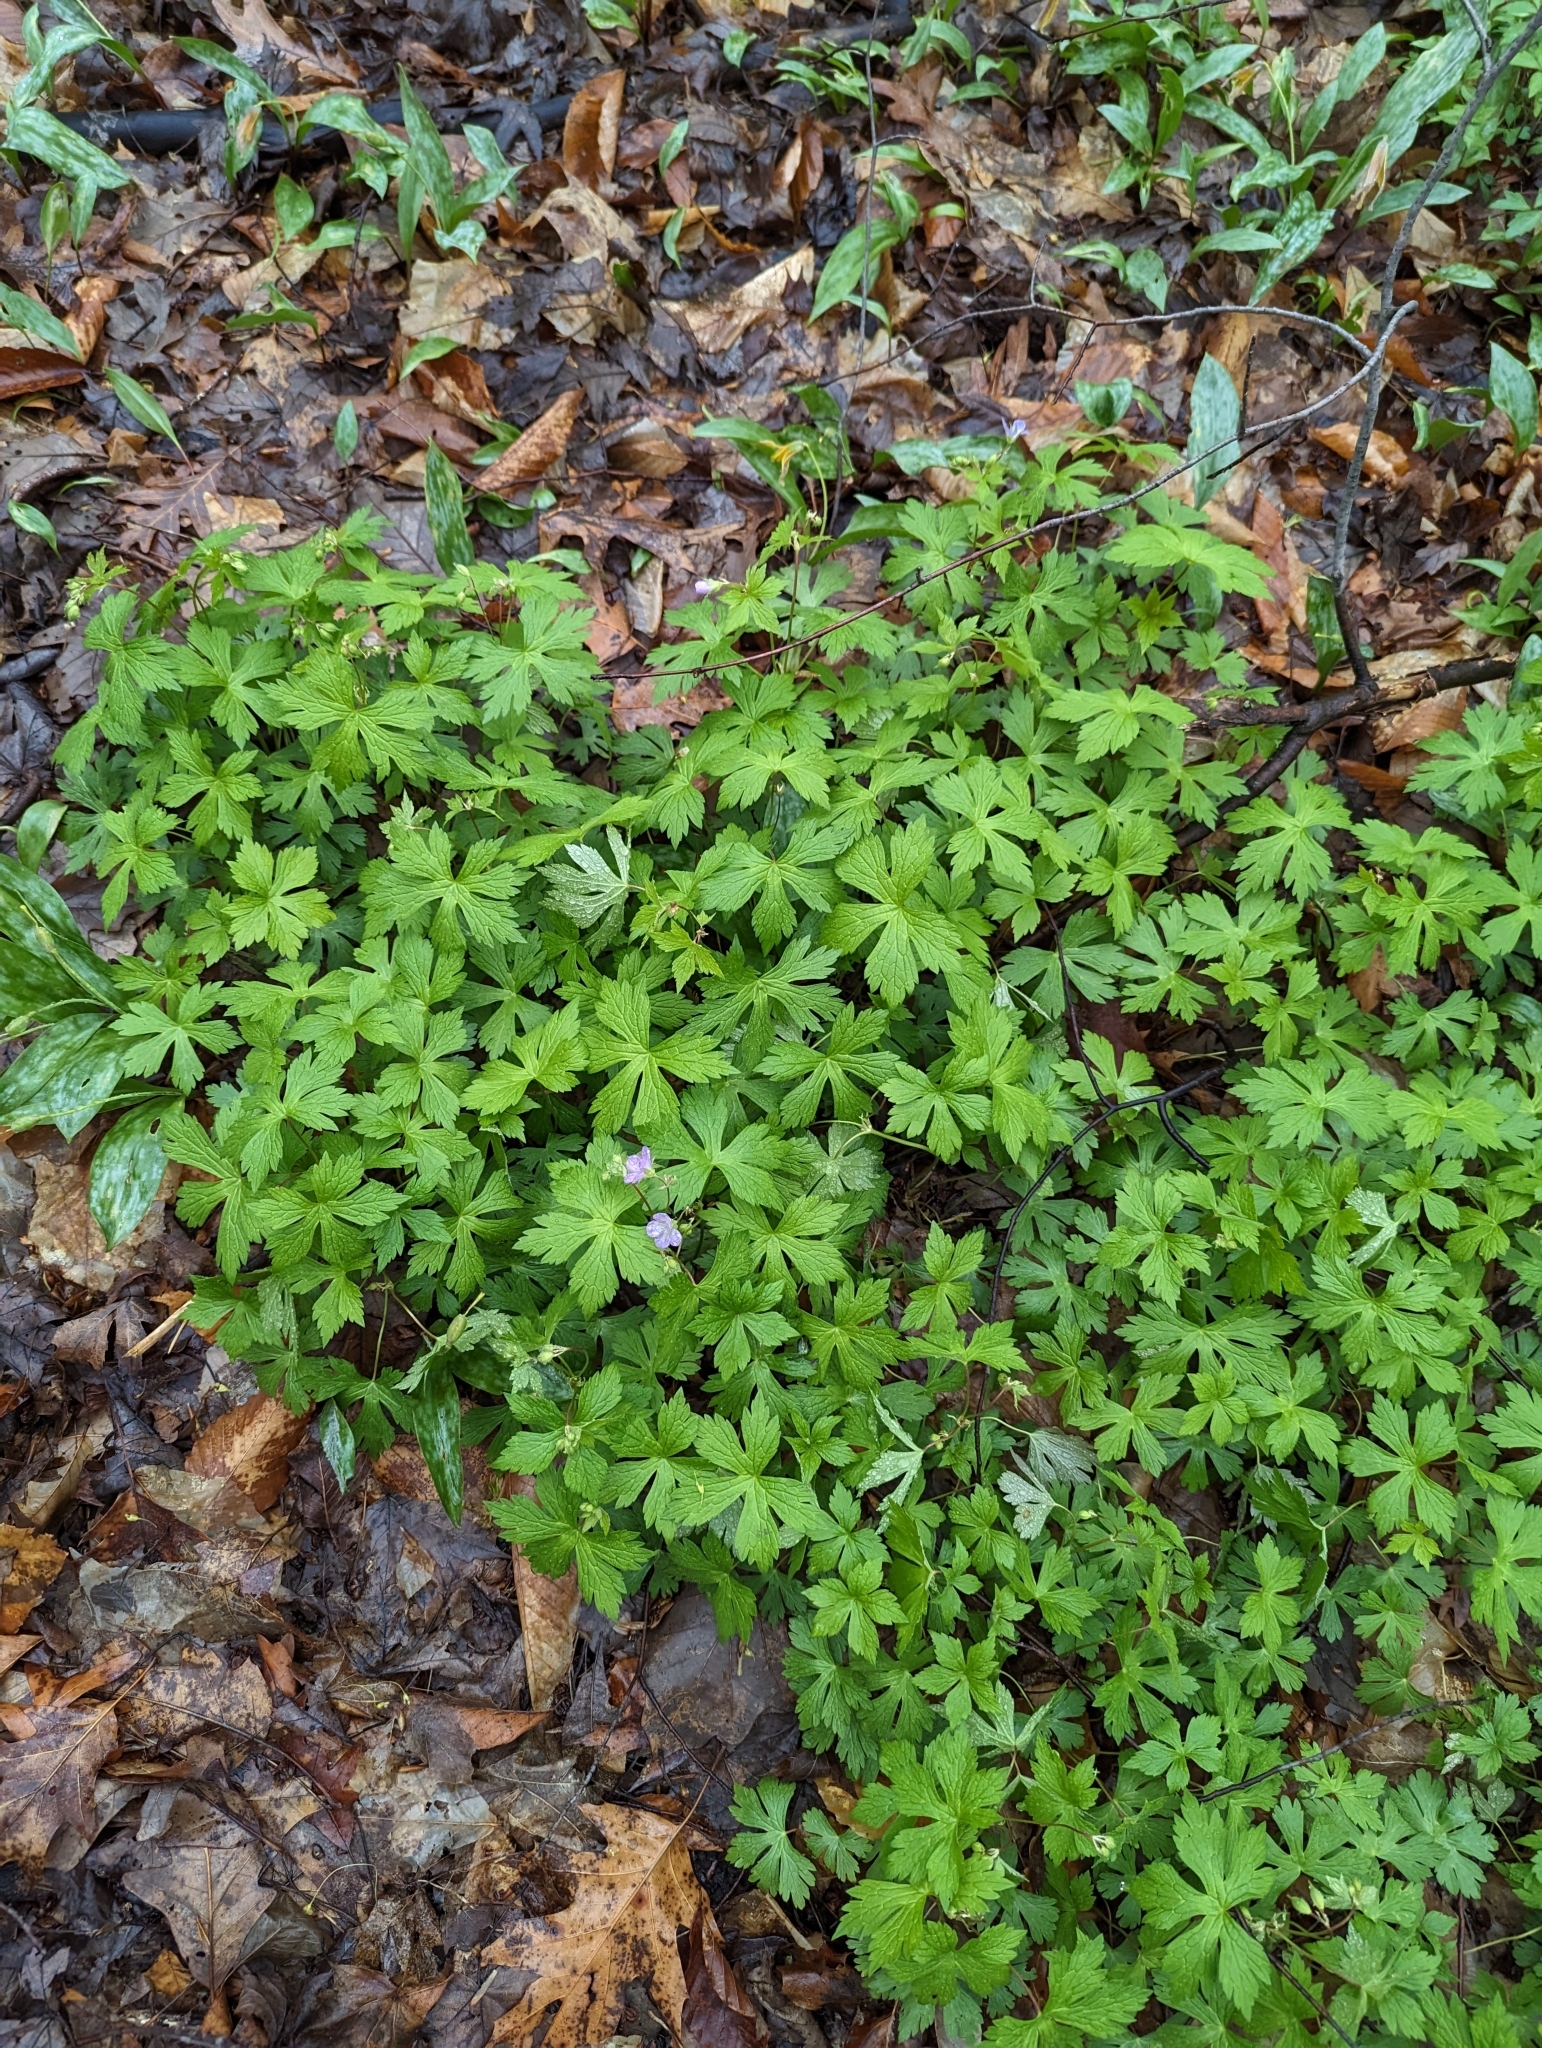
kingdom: Plantae
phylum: Tracheophyta
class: Magnoliopsida
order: Geraniales
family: Geraniaceae
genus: Geranium
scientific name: Geranium maculatum
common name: Spotted geranium
